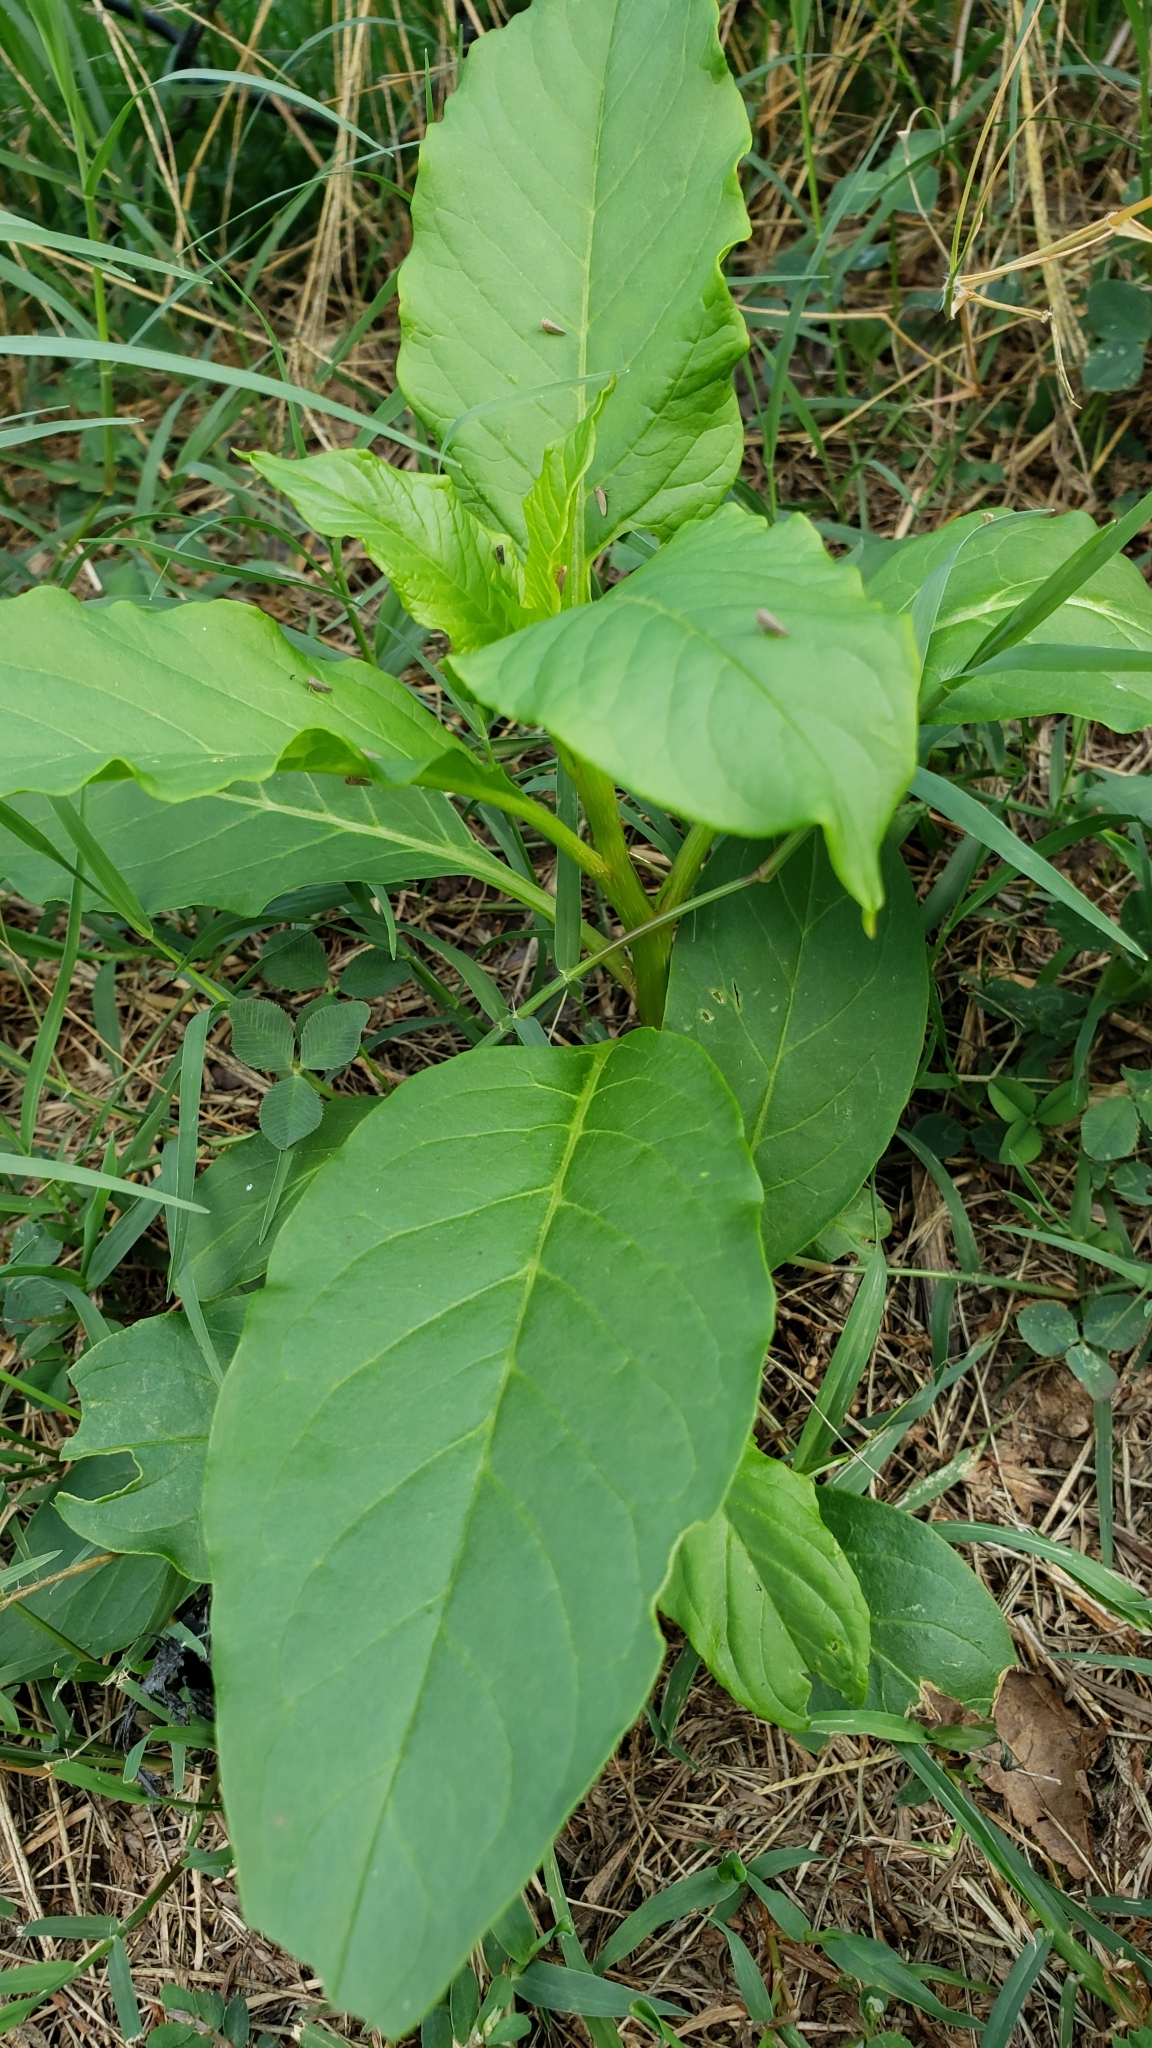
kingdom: Animalia
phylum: Arthropoda
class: Insecta
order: Hemiptera
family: Phylloxeridae
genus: Daktulosphaira
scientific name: Daktulosphaira vitifoliae
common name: Grape phylloxera
